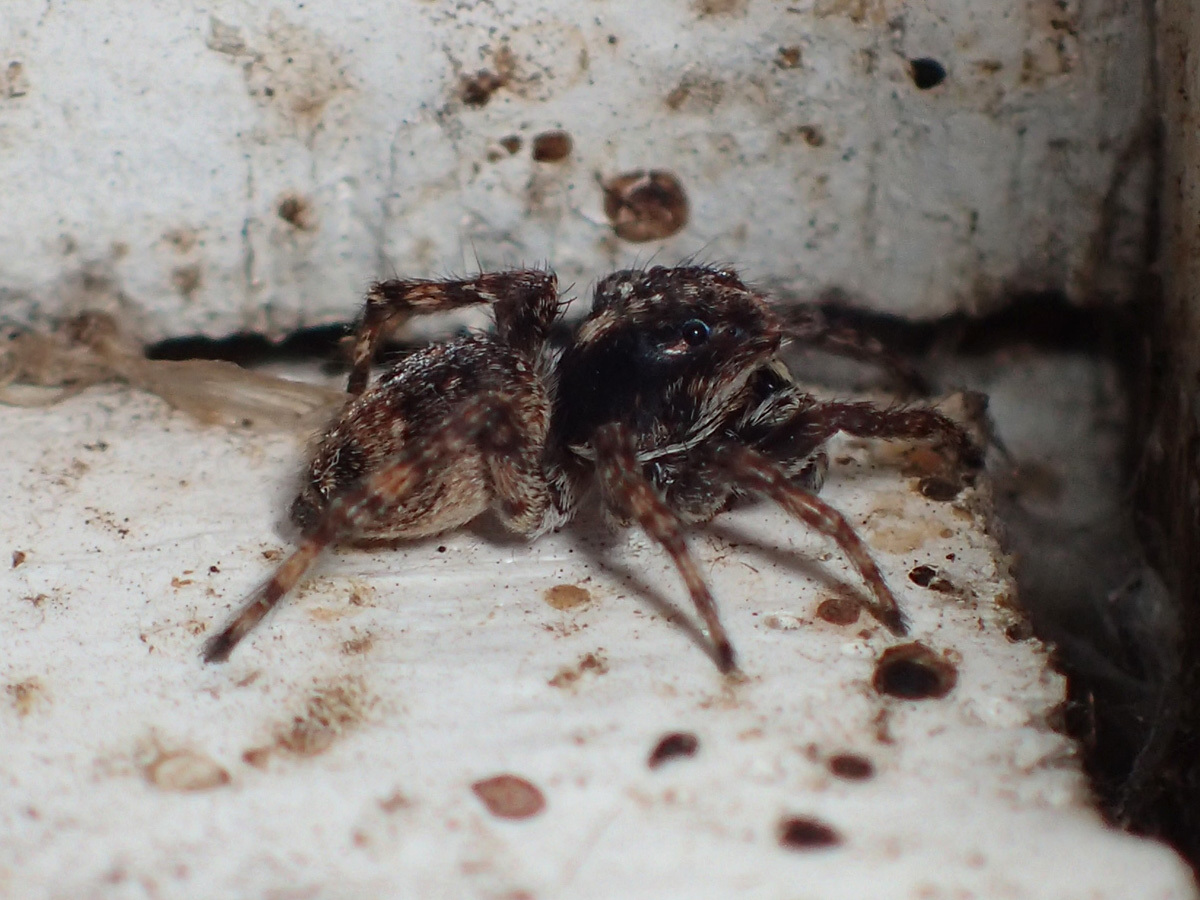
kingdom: Animalia
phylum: Arthropoda
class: Arachnida
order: Araneae
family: Salticidae
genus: Attulus
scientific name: Attulus fasciger
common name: Asiatic wall jumping spider
